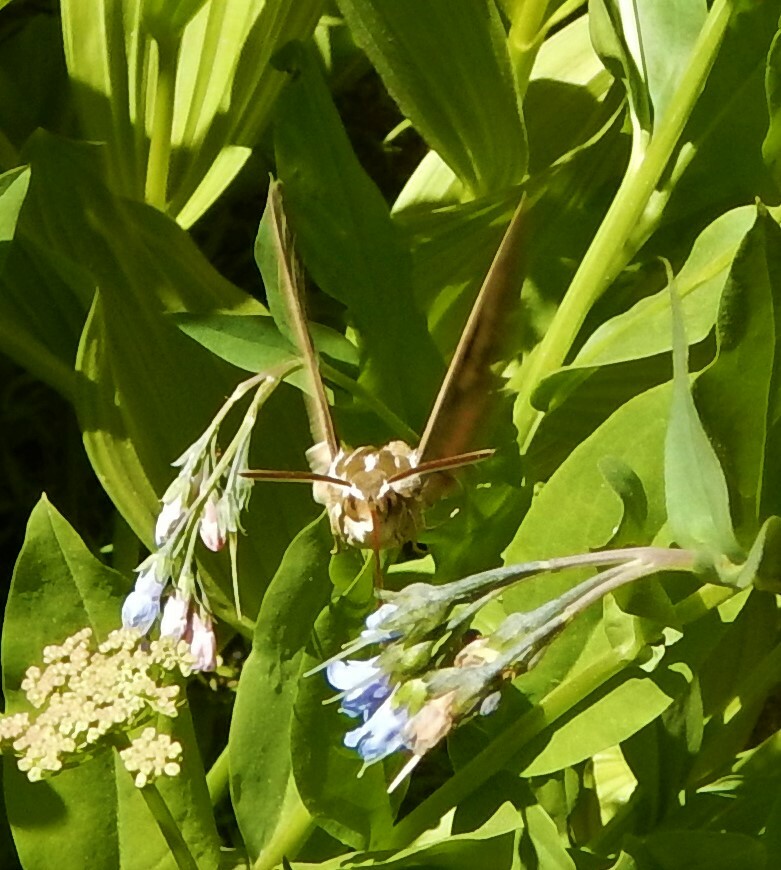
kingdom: Animalia
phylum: Arthropoda
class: Insecta
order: Lepidoptera
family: Sphingidae
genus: Hyles
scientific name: Hyles lineata
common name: White-lined sphinx
